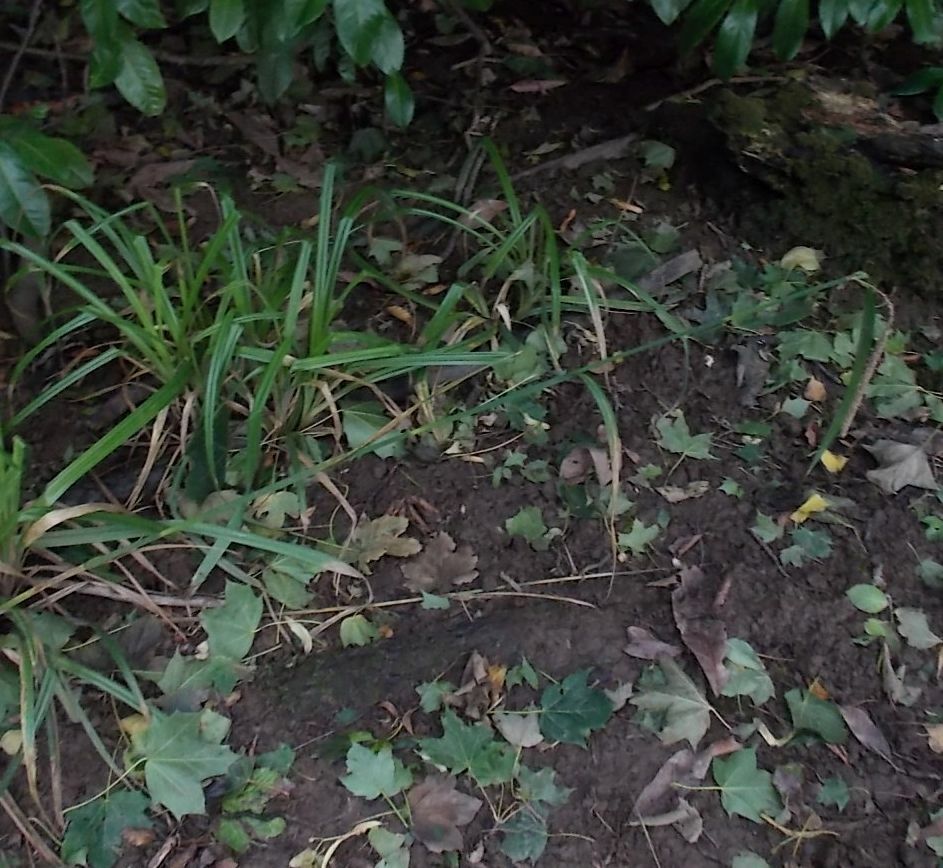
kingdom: Plantae
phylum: Tracheophyta
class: Liliopsida
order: Poales
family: Cyperaceae
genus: Carex
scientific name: Carex pendula
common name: Pendulous sedge
